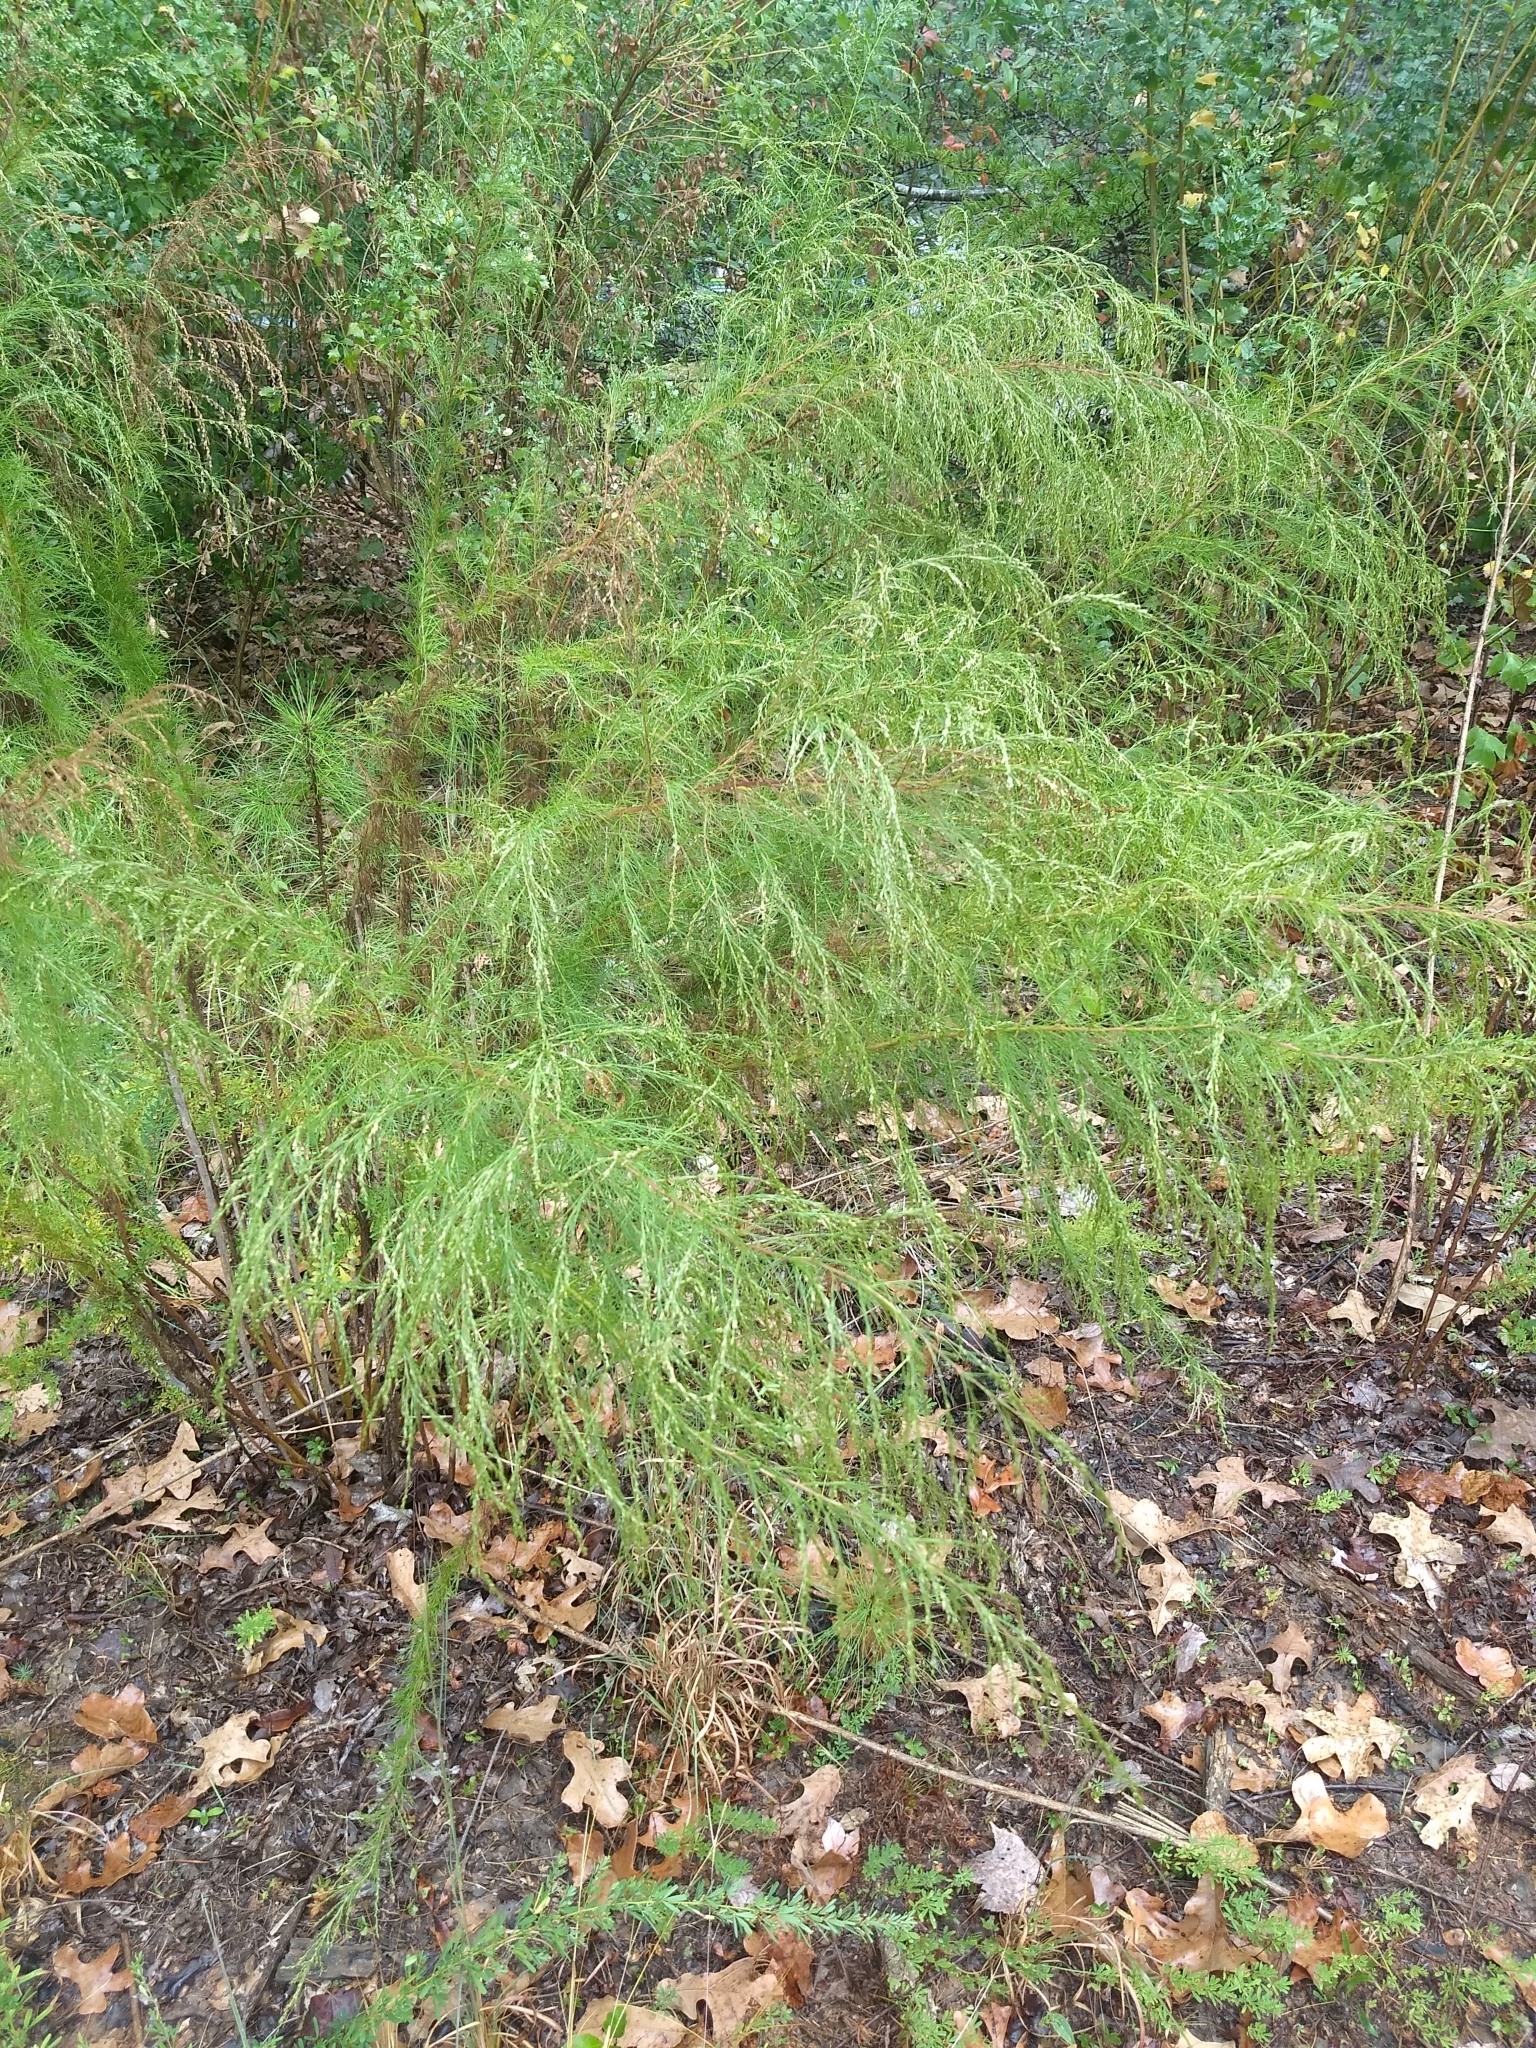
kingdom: Plantae
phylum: Tracheophyta
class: Magnoliopsida
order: Asterales
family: Asteraceae
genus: Eupatorium
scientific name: Eupatorium capillifolium
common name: Dog-fennel
